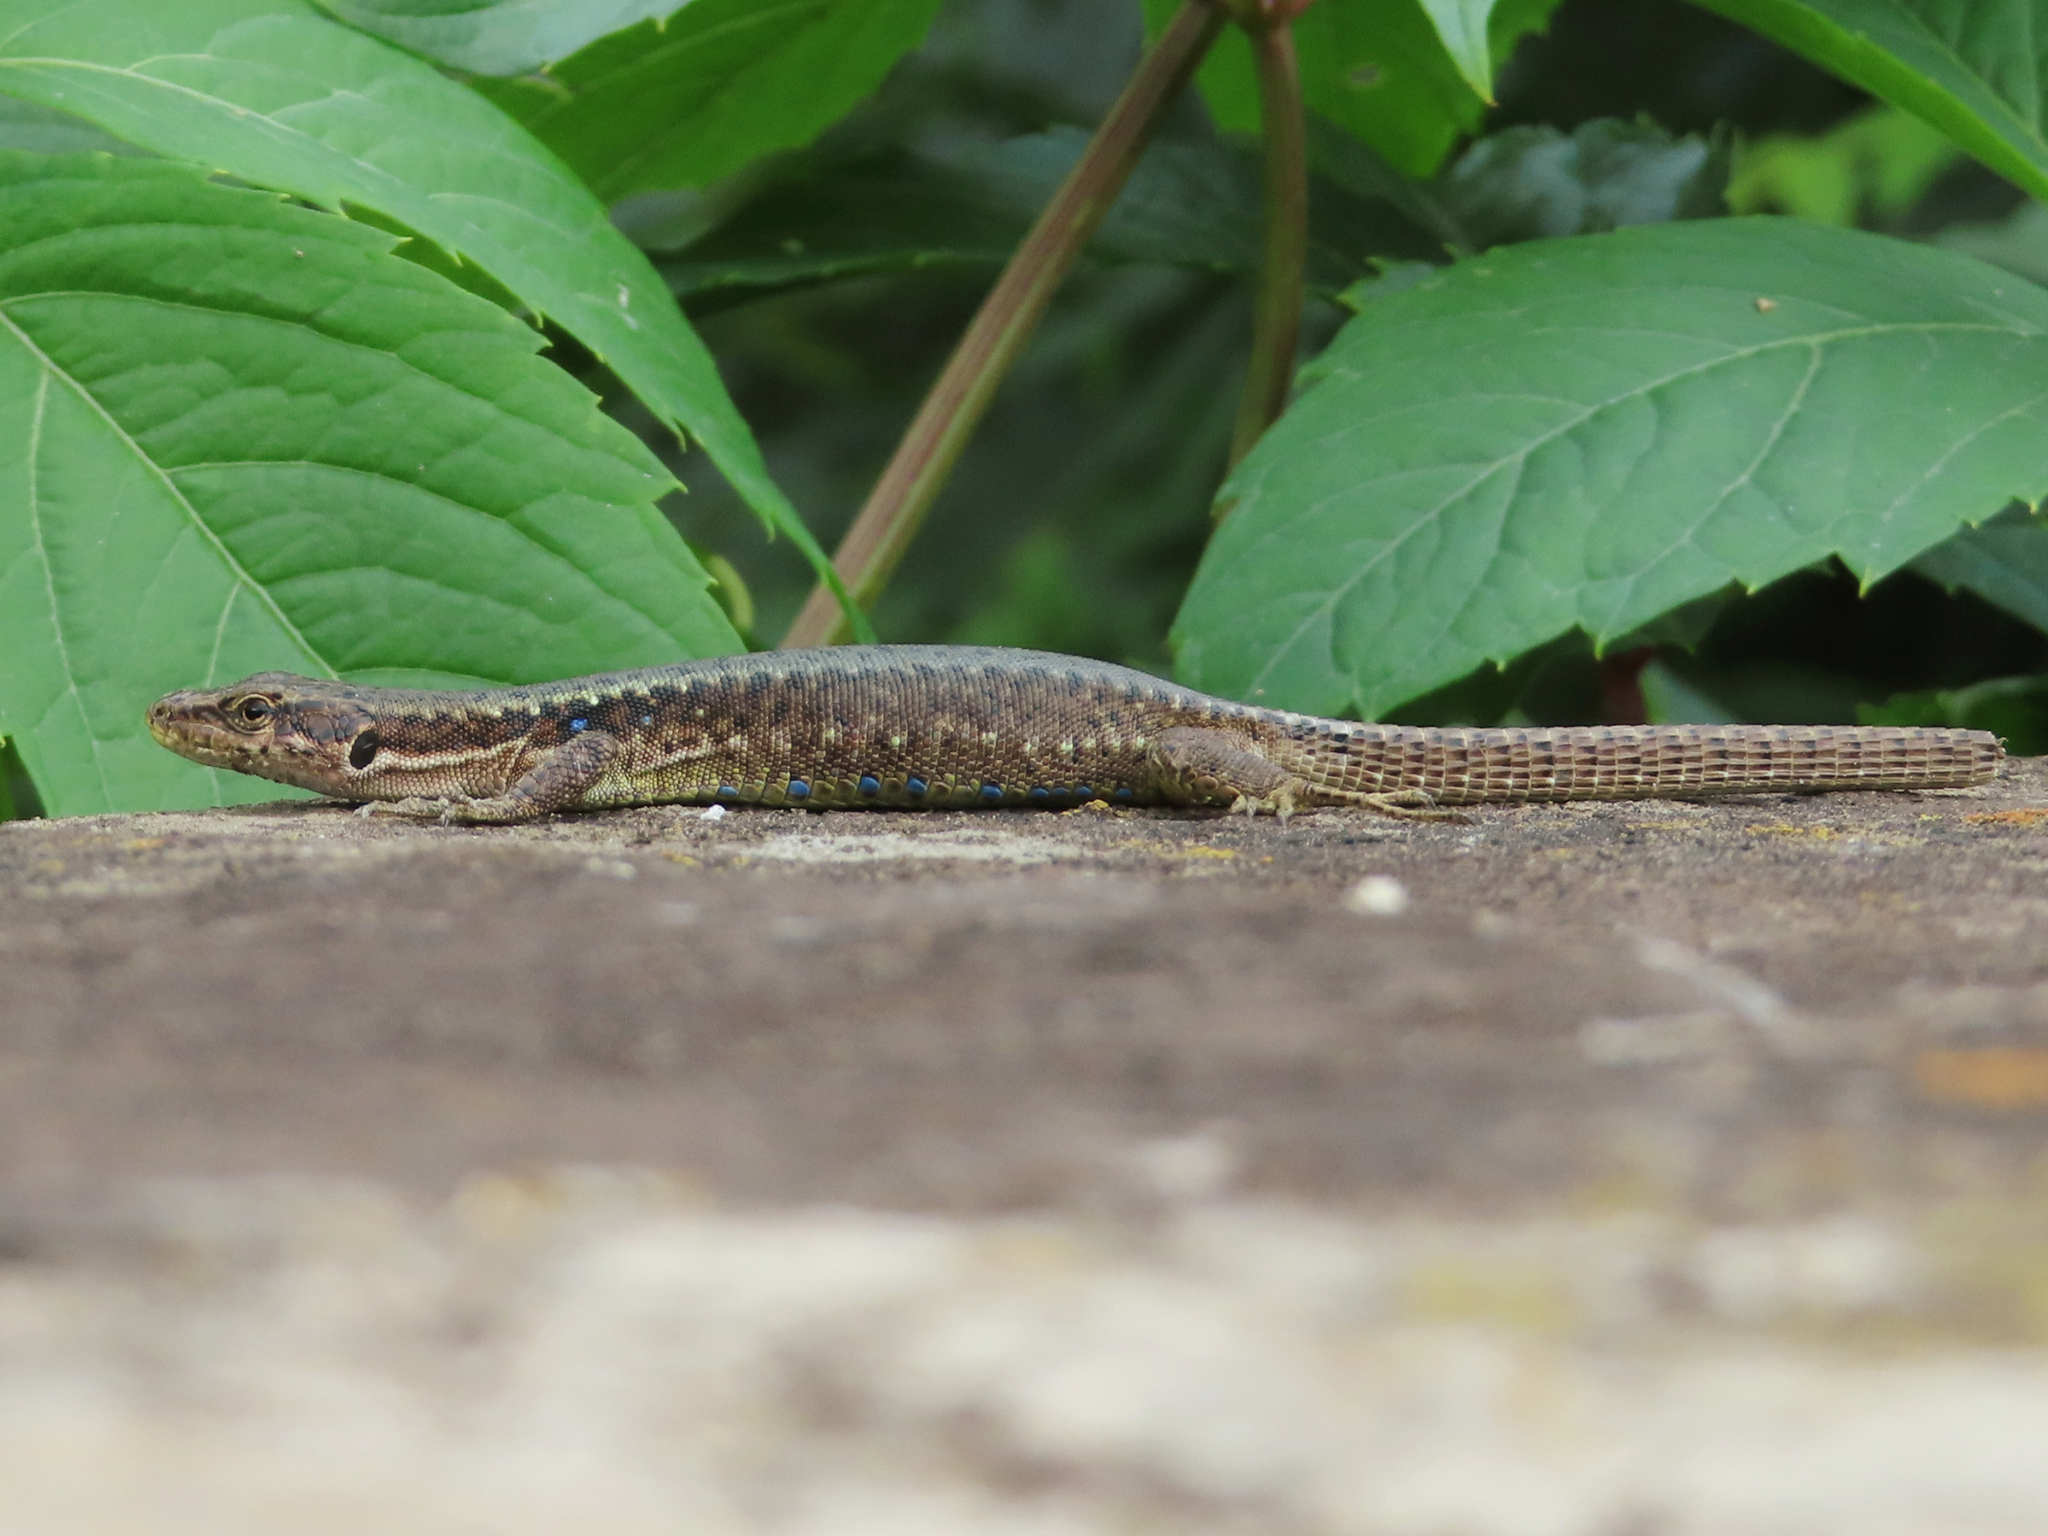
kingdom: Animalia
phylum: Chordata
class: Squamata
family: Lacertidae
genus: Darevskia
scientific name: Darevskia armeniaca
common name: Armenian lizard
